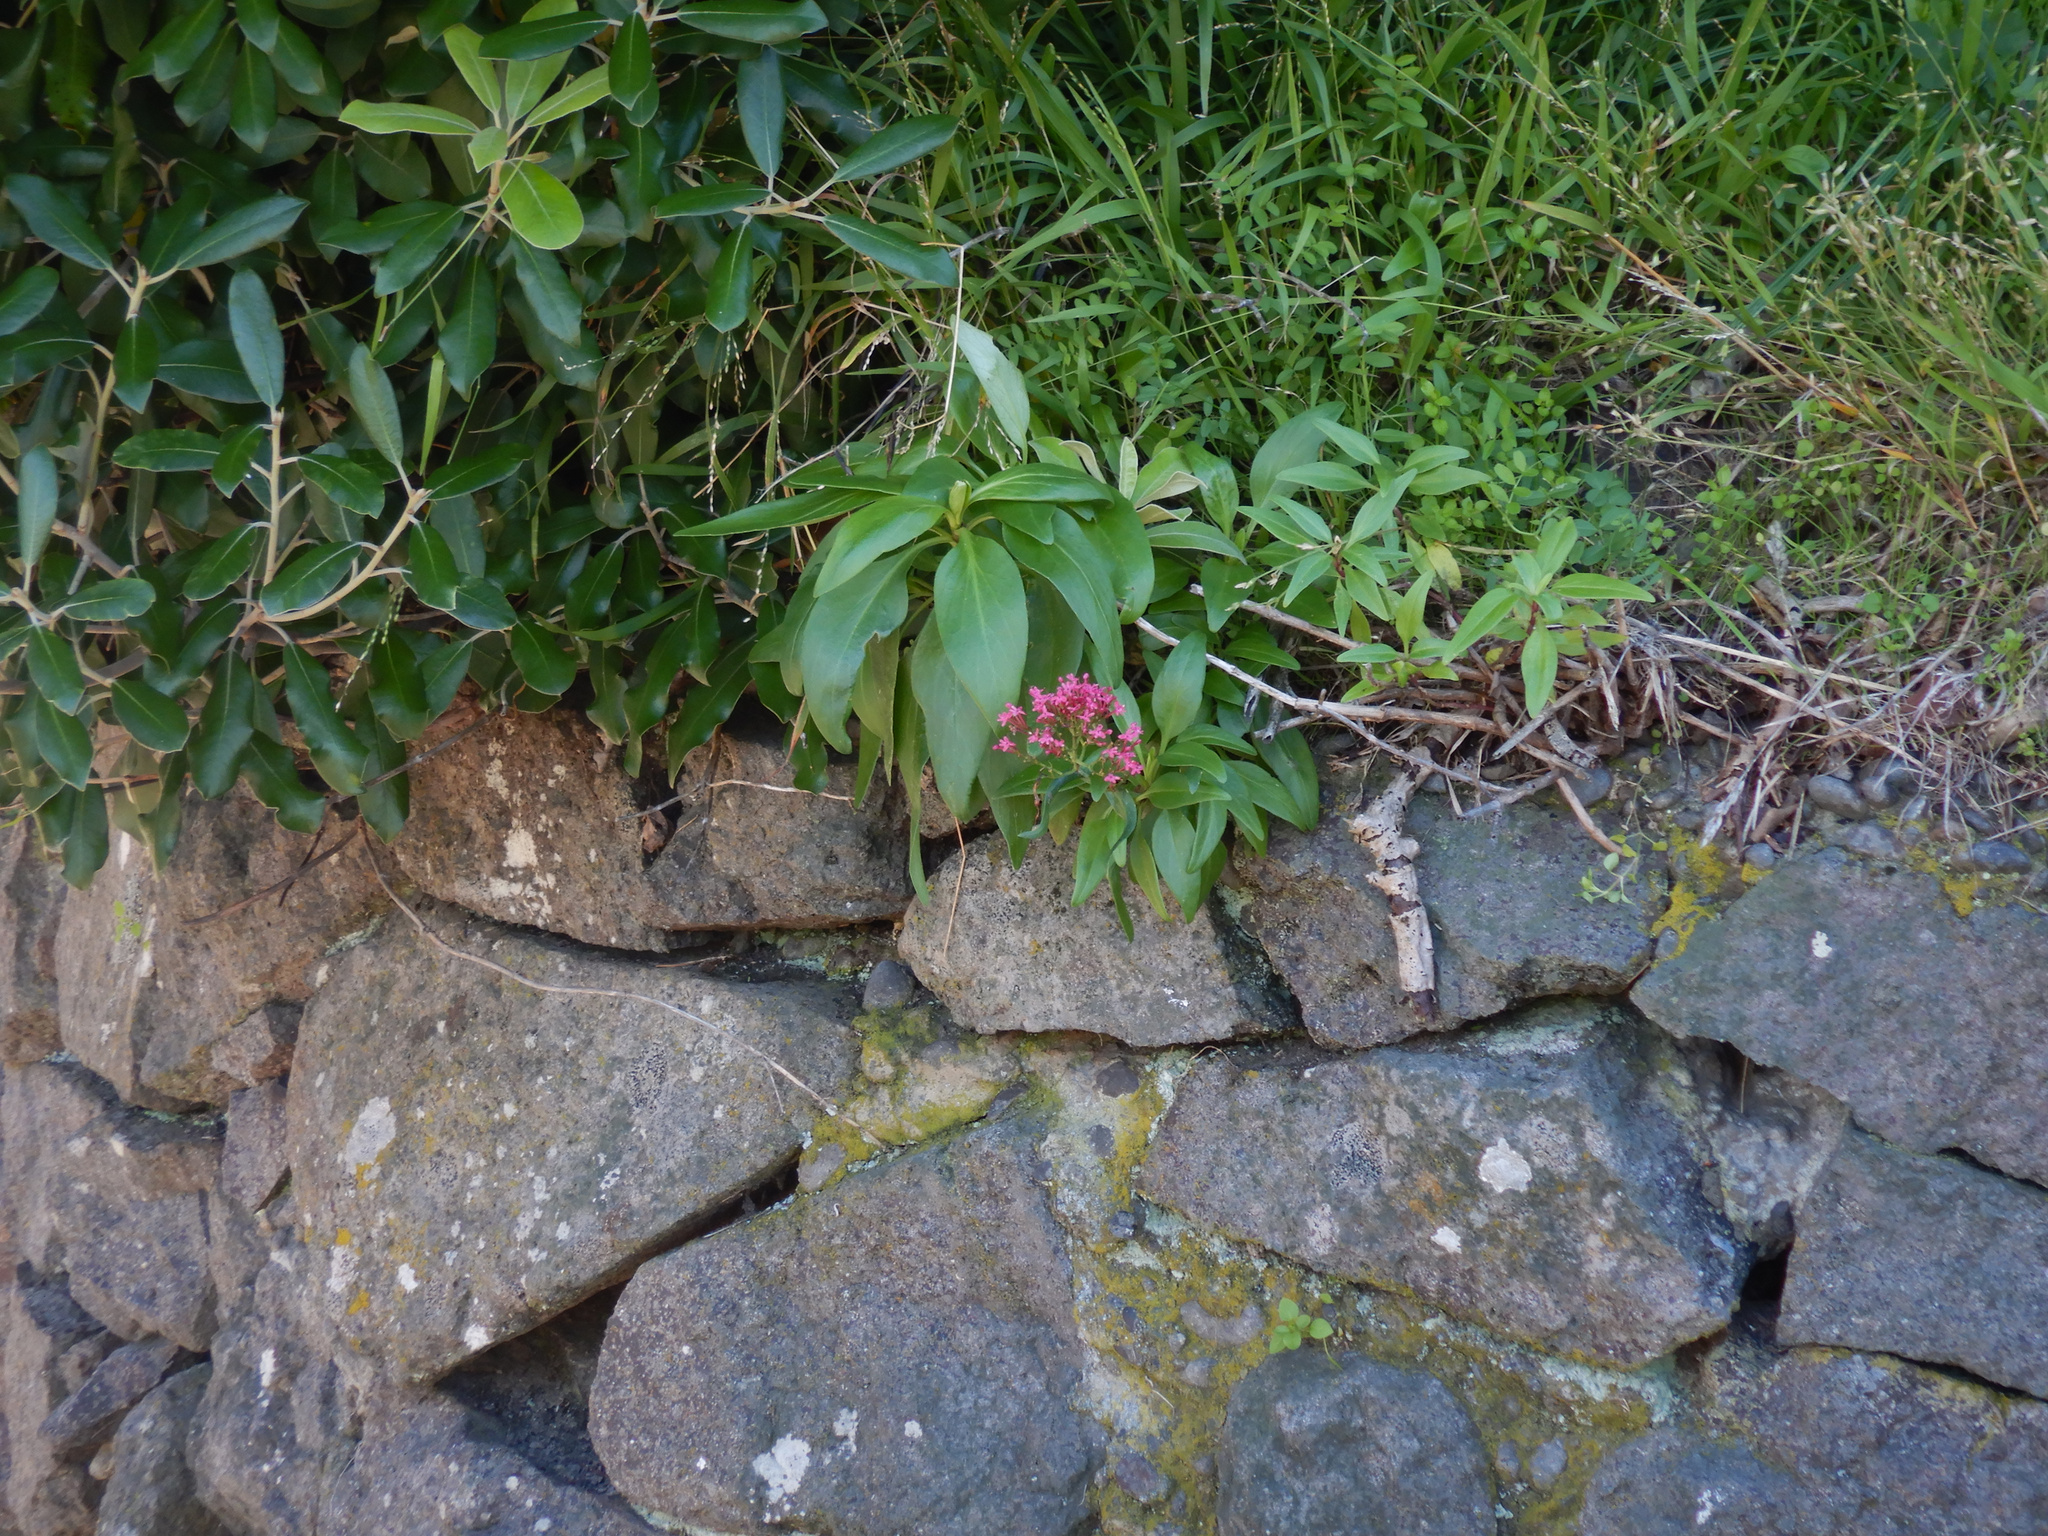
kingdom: Plantae
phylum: Tracheophyta
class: Magnoliopsida
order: Dipsacales
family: Caprifoliaceae
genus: Centranthus
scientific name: Centranthus ruber
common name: Red valerian
